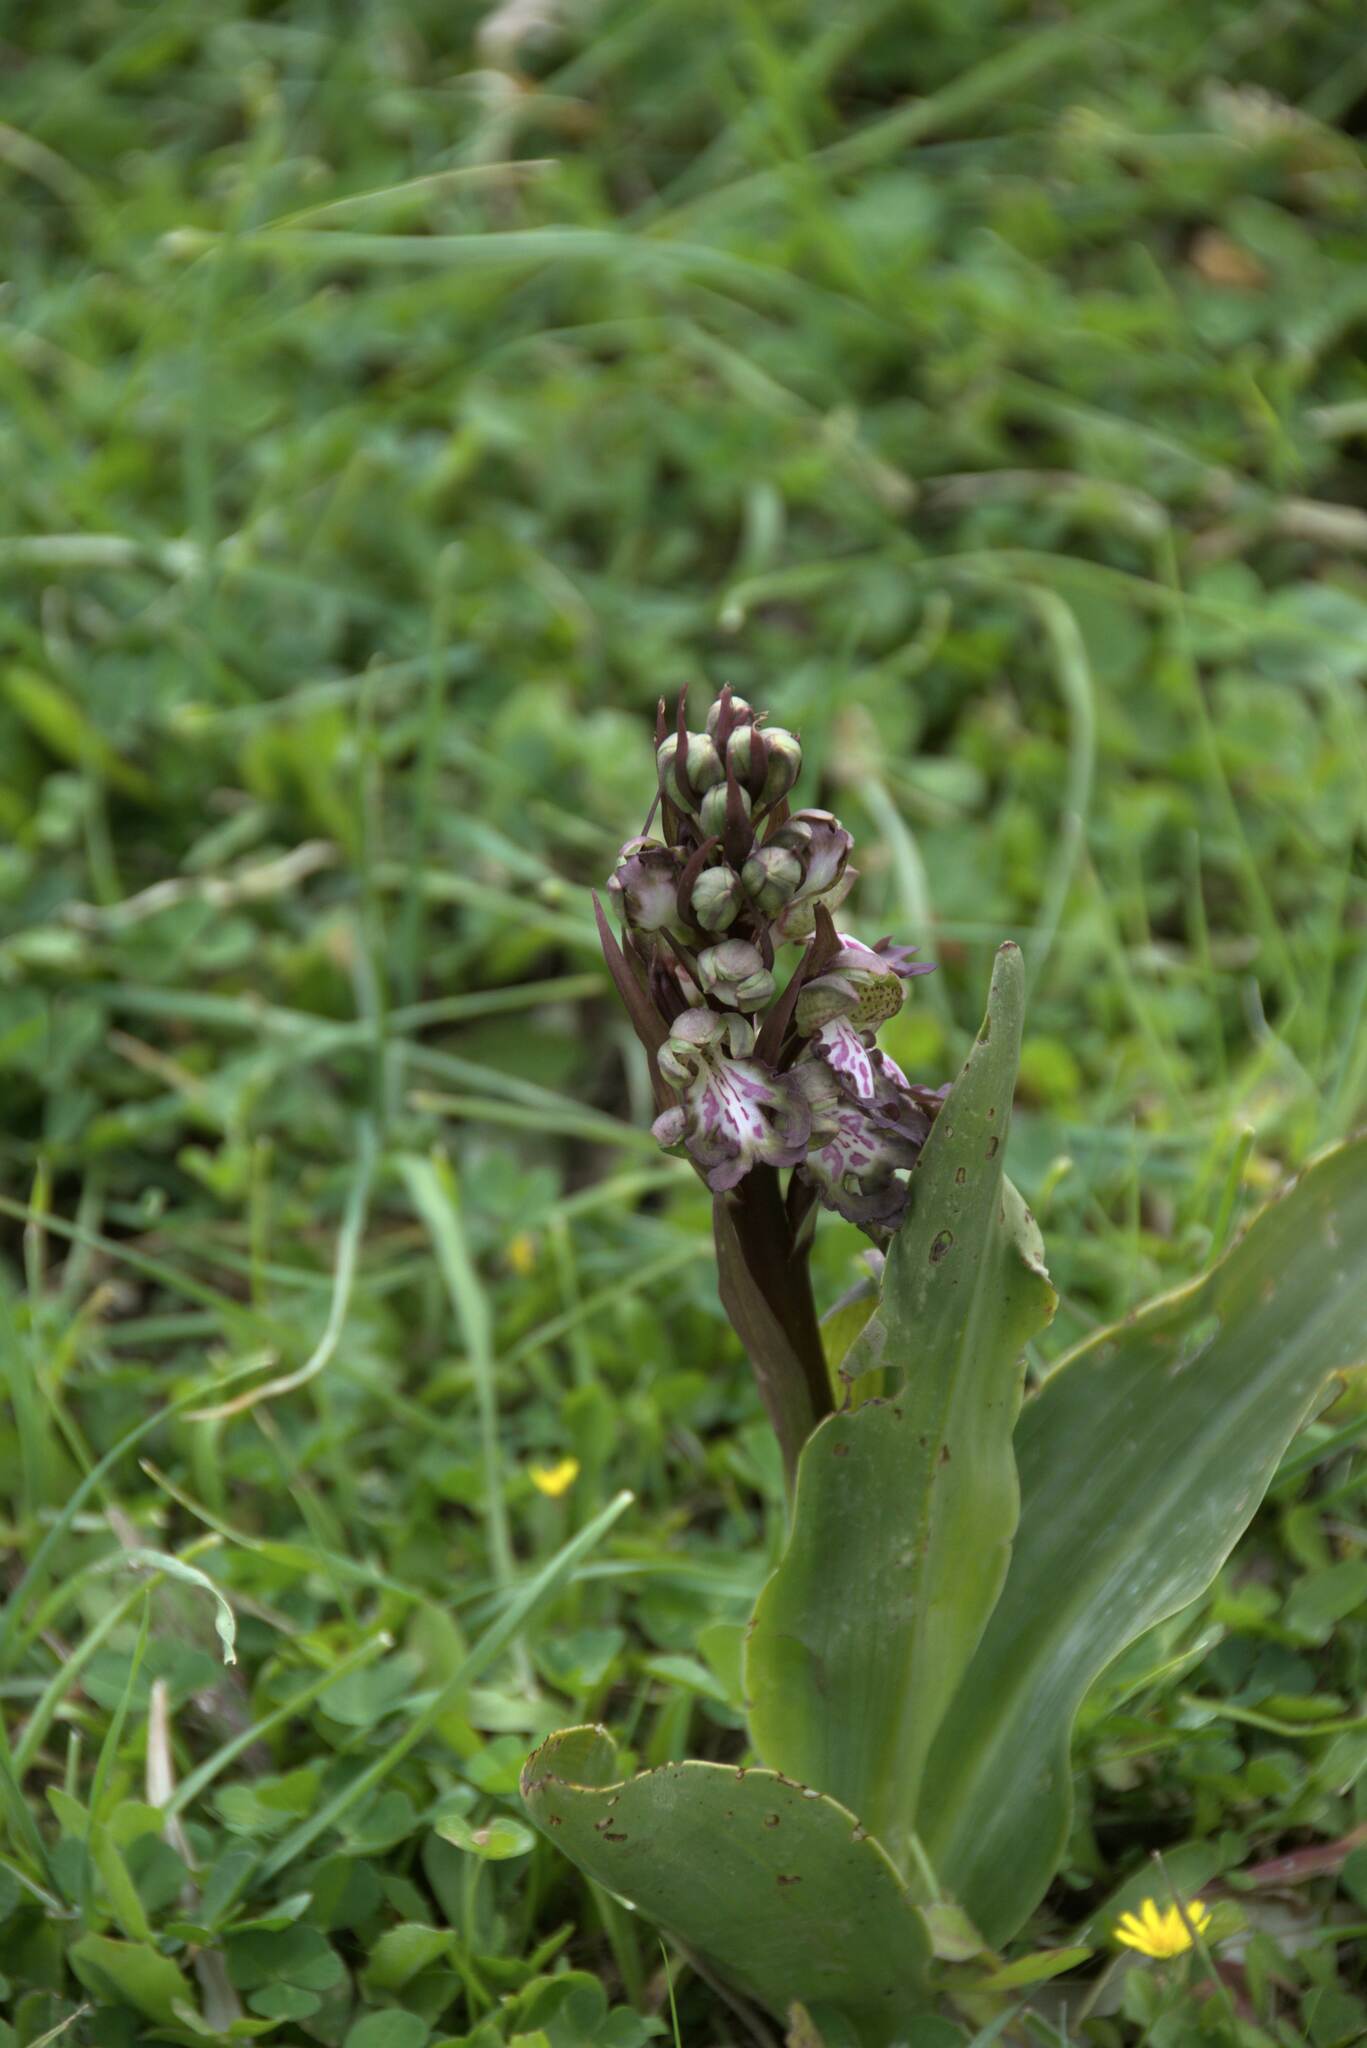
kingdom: Plantae
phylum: Tracheophyta
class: Liliopsida
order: Asparagales
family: Orchidaceae
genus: Himantoglossum
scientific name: Himantoglossum robertianum
